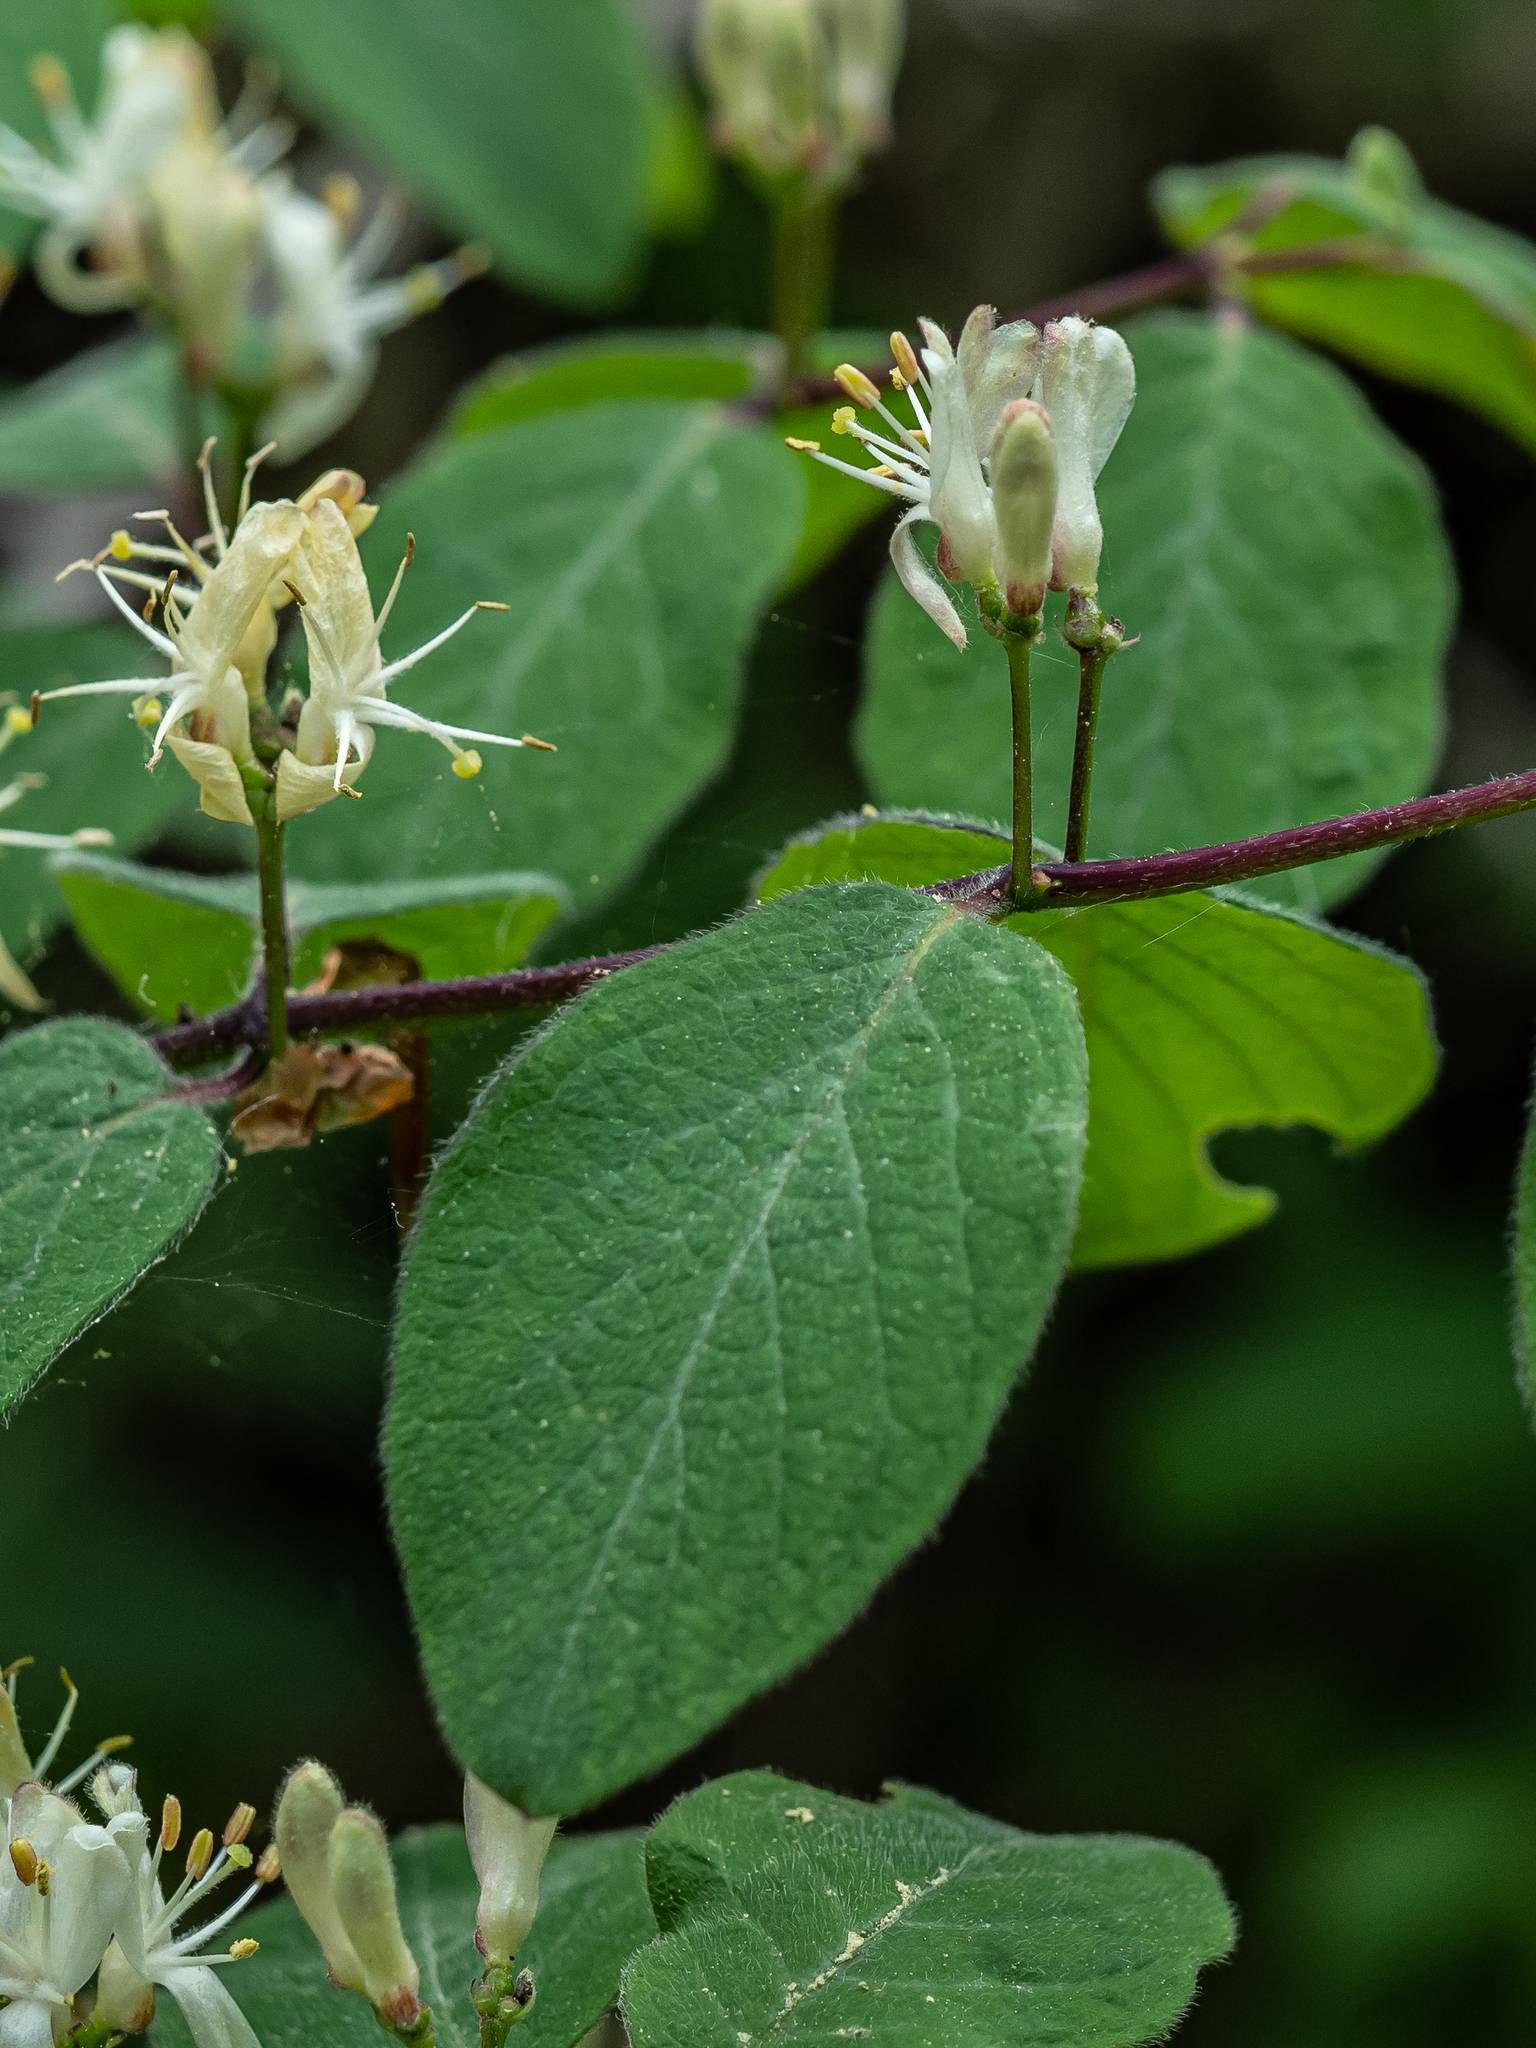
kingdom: Plantae
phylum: Tracheophyta
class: Magnoliopsida
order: Dipsacales
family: Caprifoliaceae
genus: Lonicera
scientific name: Lonicera xylosteum
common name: Fly honeysuckle
